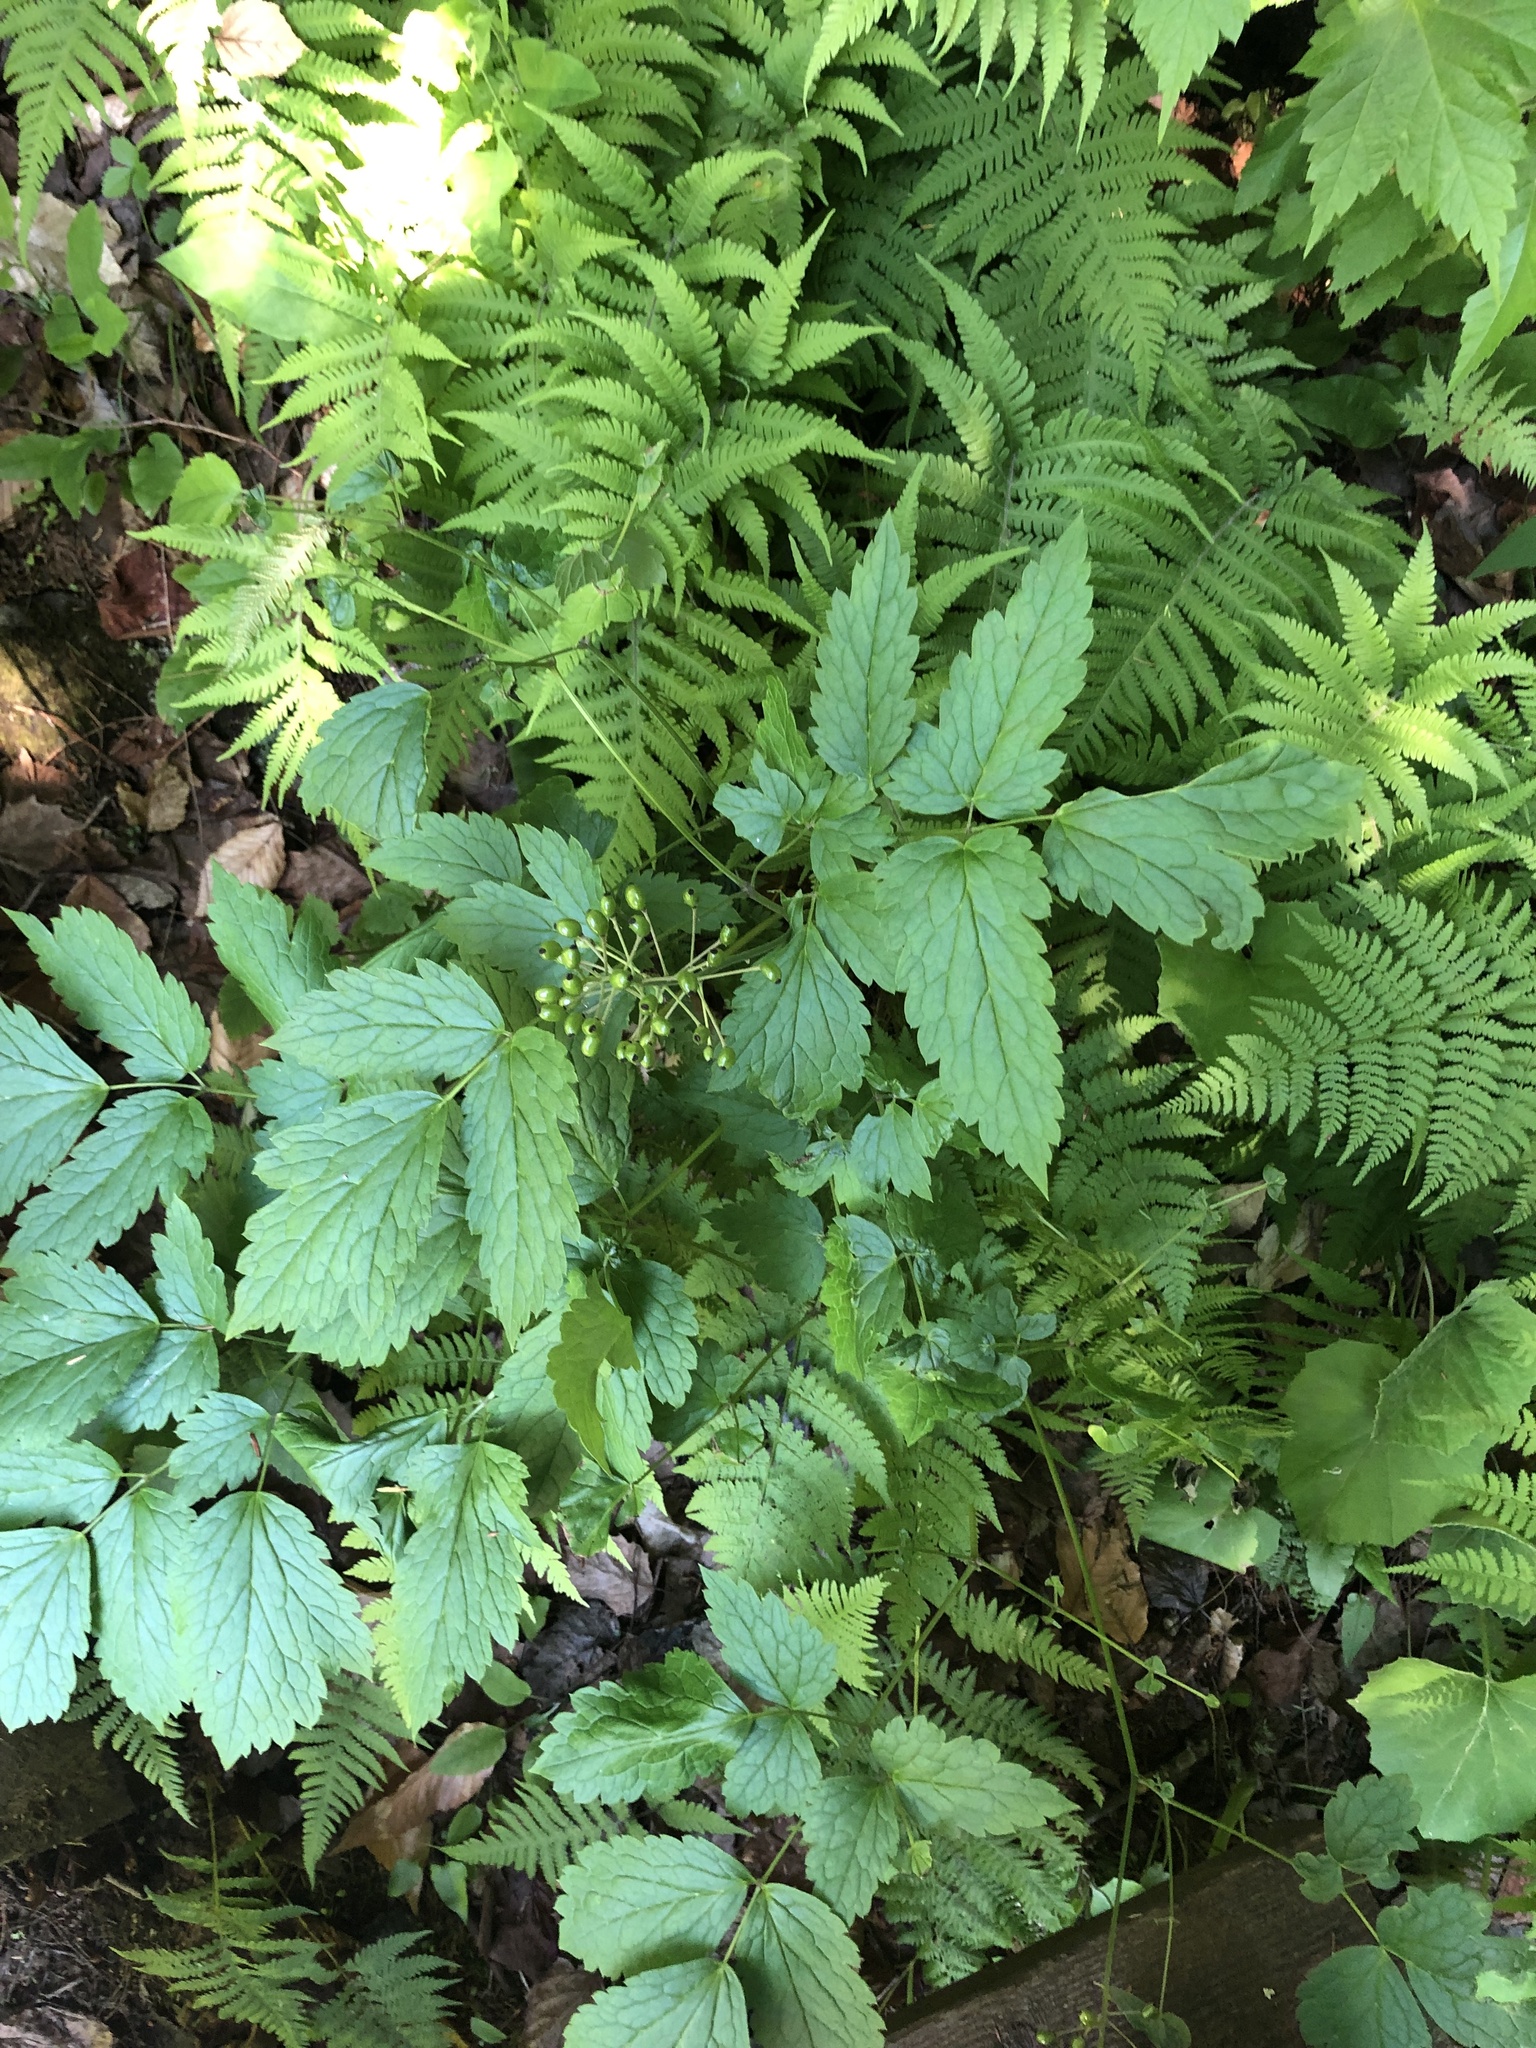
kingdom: Plantae
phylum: Tracheophyta
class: Magnoliopsida
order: Ranunculales
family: Ranunculaceae
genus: Actaea
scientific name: Actaea rubra
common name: Red baneberry
